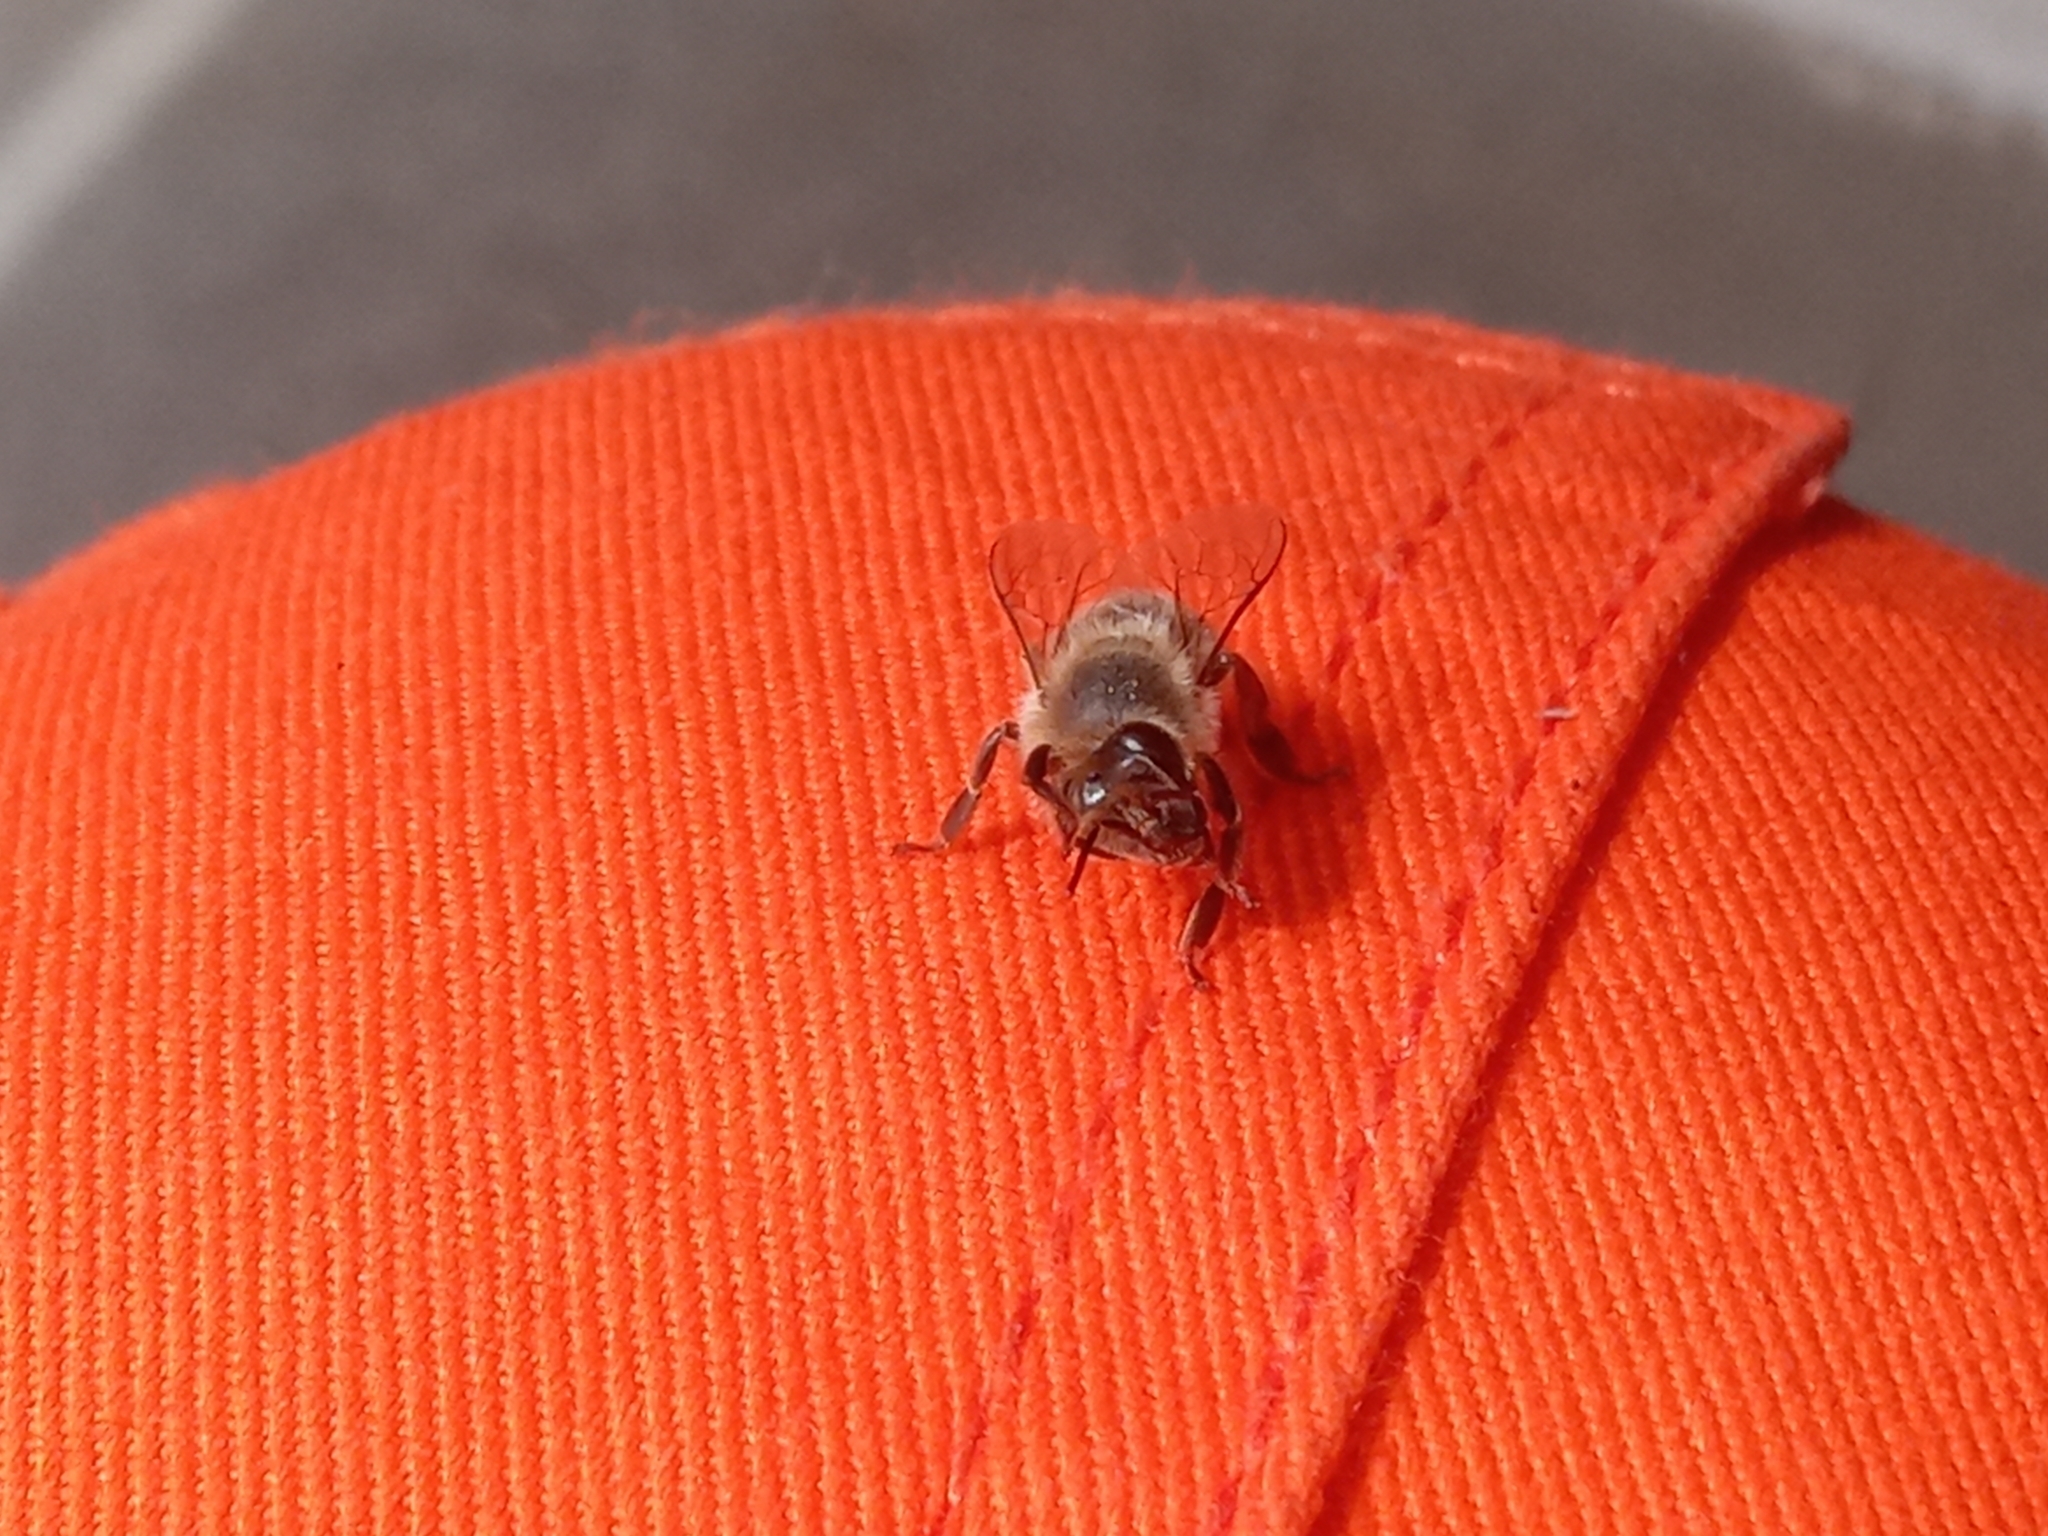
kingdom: Animalia
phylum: Arthropoda
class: Insecta
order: Hymenoptera
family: Apidae
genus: Apis
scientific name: Apis mellifera
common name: Honey bee
